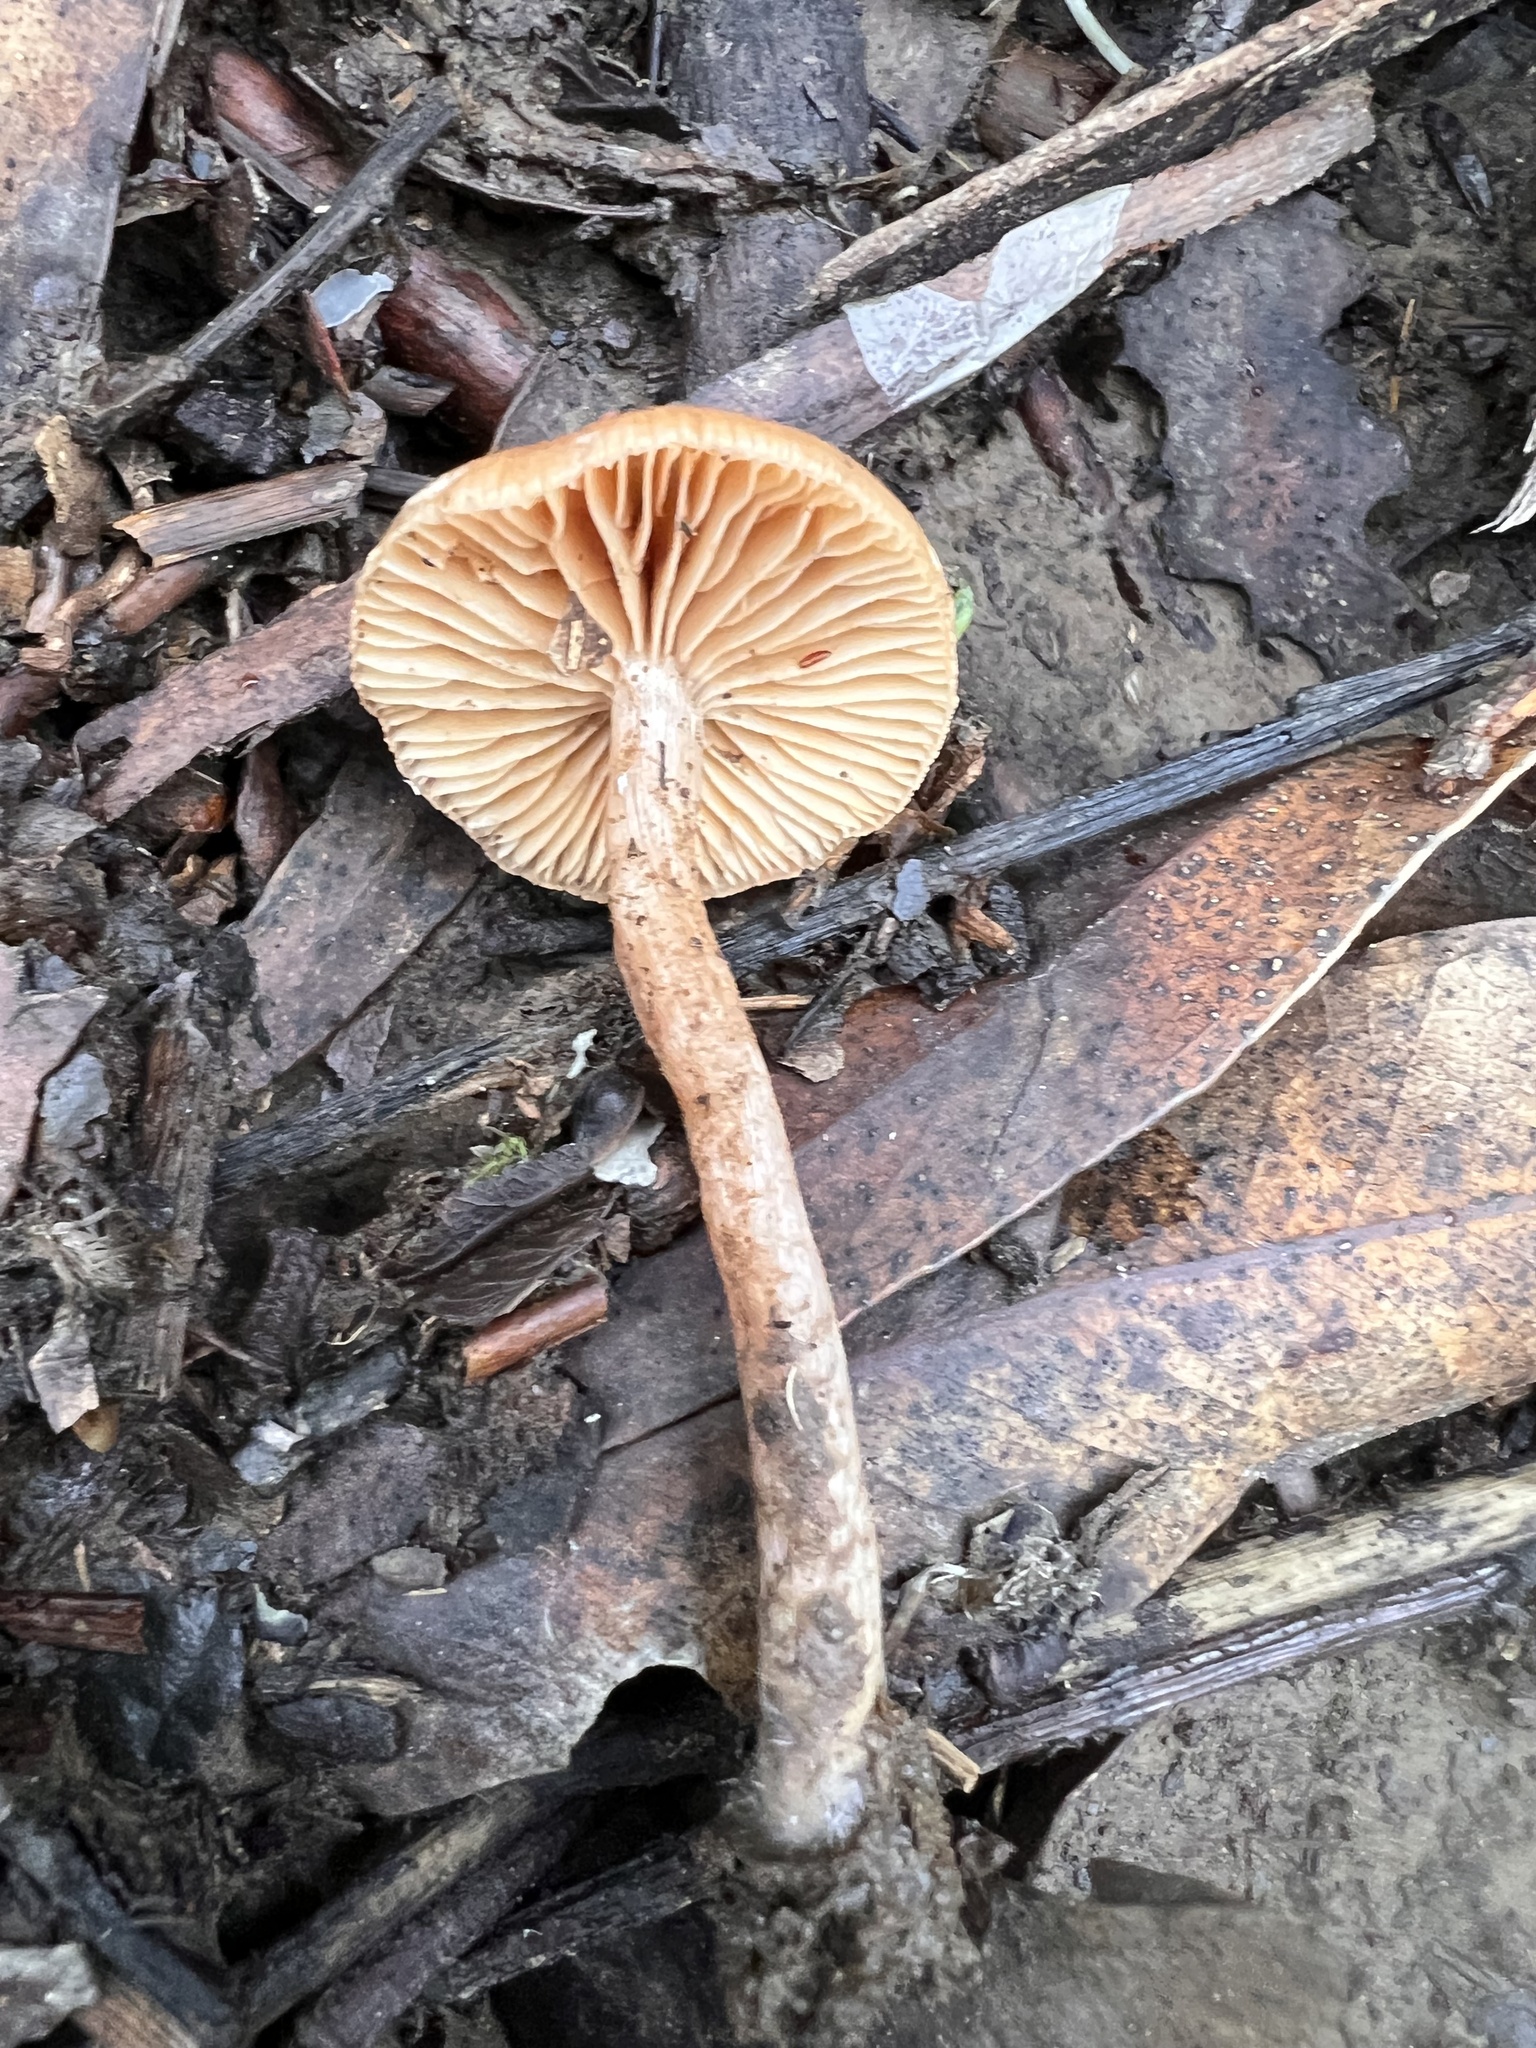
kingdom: Fungi
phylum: Basidiomycota
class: Agaricomycetes
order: Agaricales
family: Tubariaceae
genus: Tubaria
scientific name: Tubaria furfuracea
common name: Scurfy twiglet
